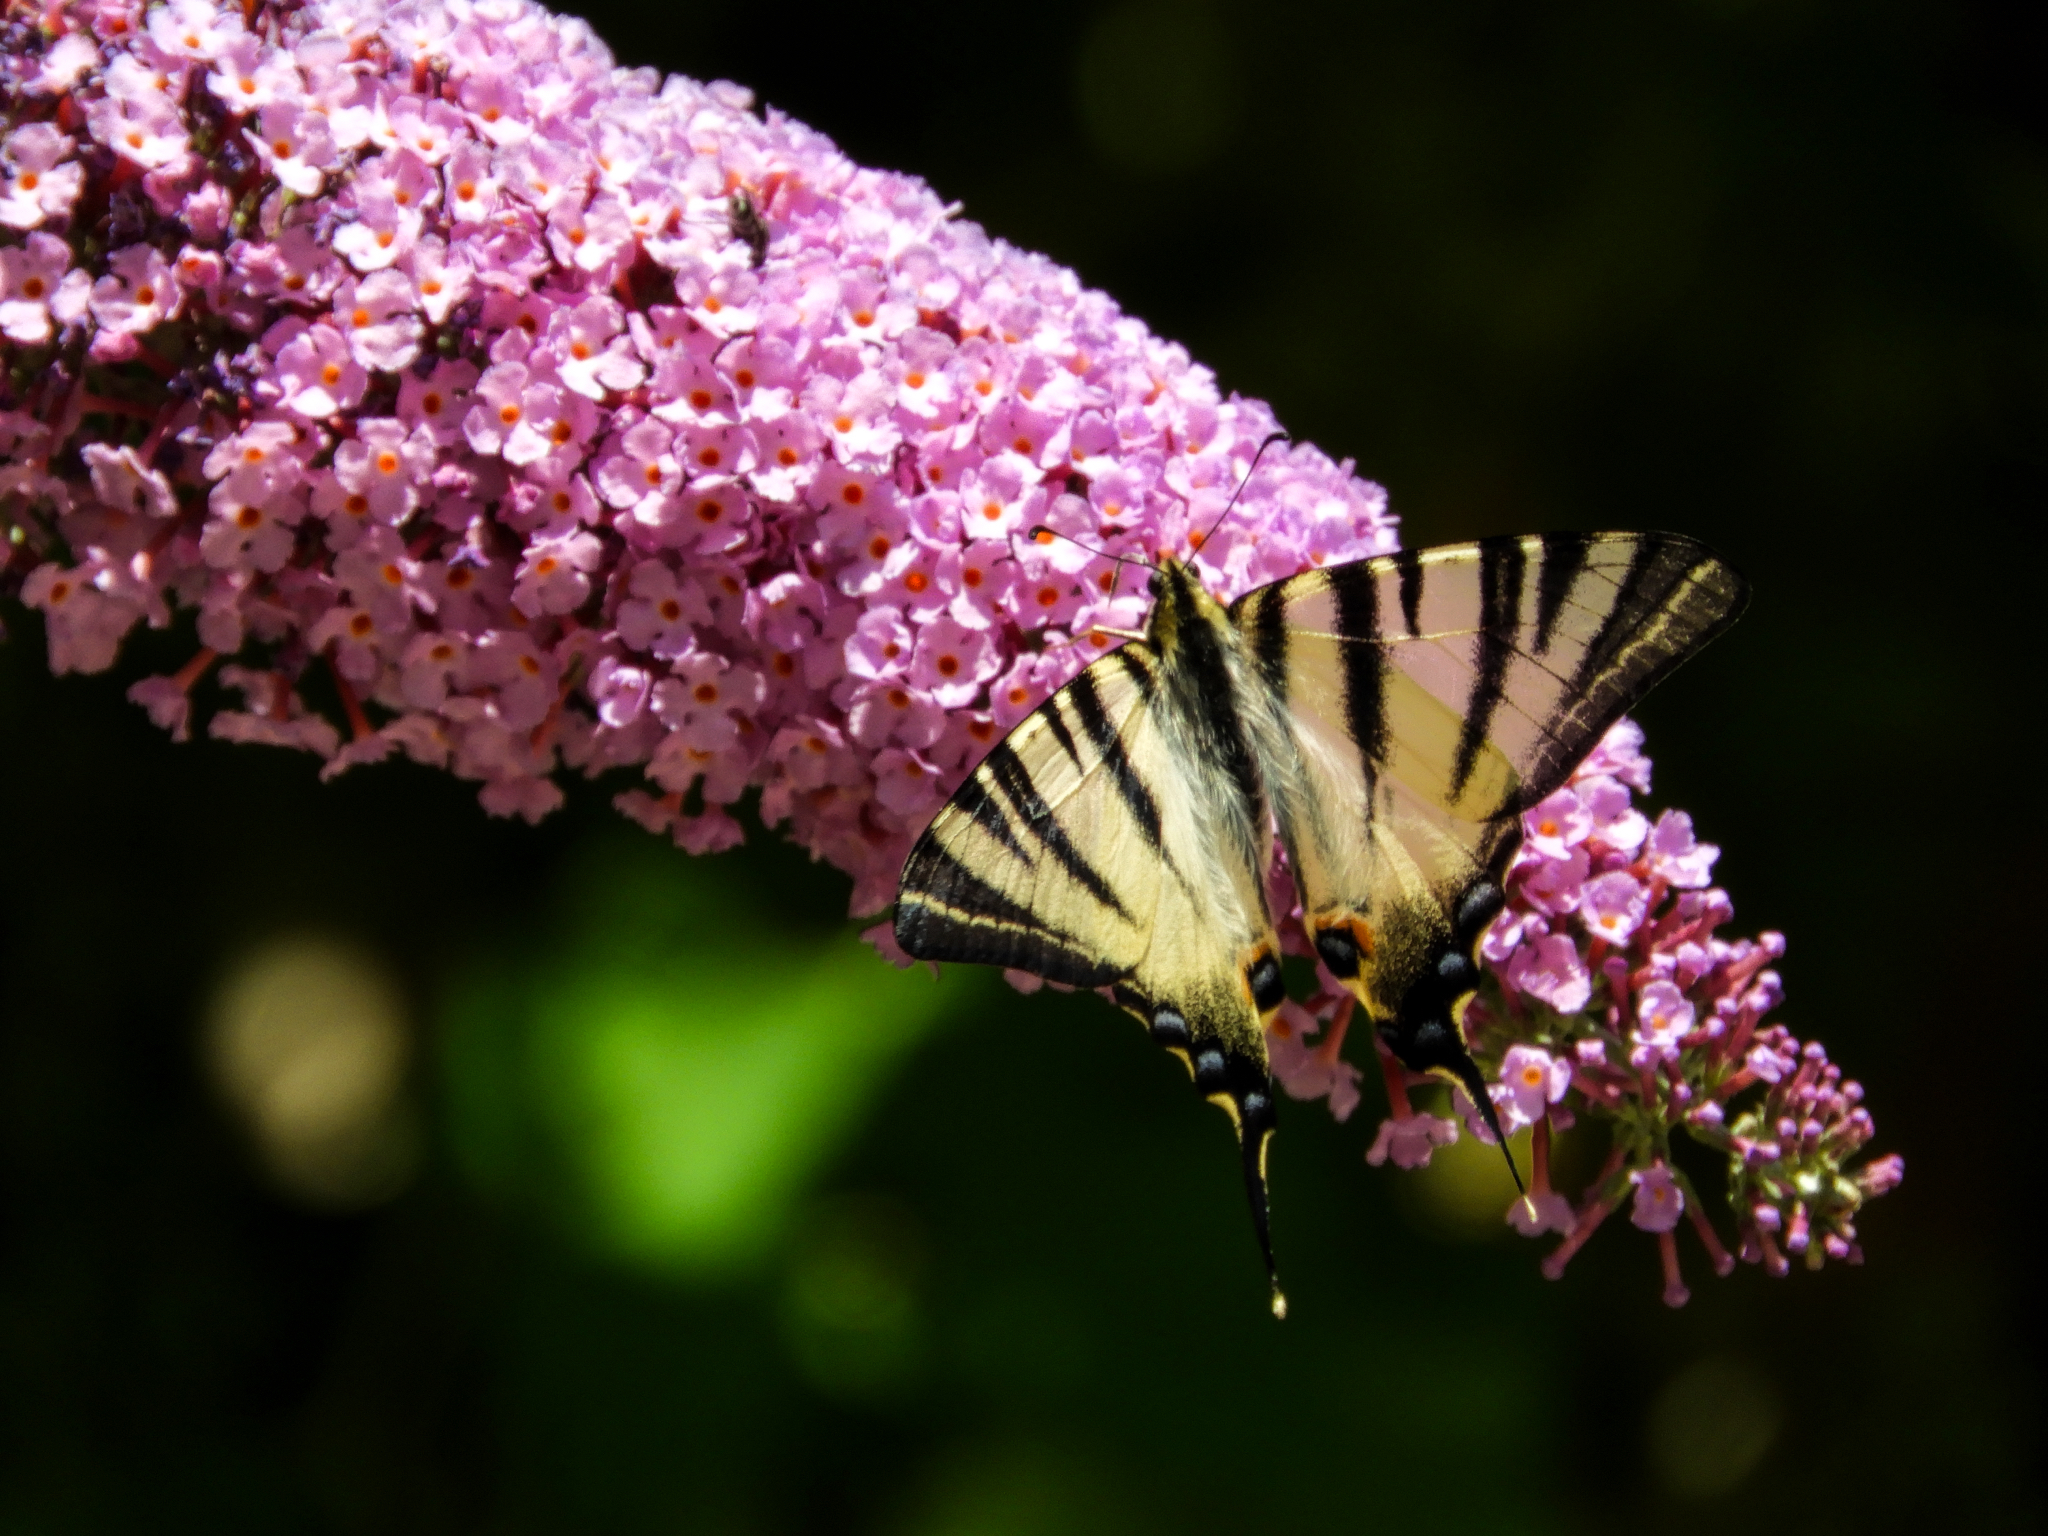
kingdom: Animalia
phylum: Arthropoda
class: Insecta
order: Lepidoptera
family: Papilionidae
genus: Iphiclides
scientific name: Iphiclides podalirius
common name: Scarce swallowtail
